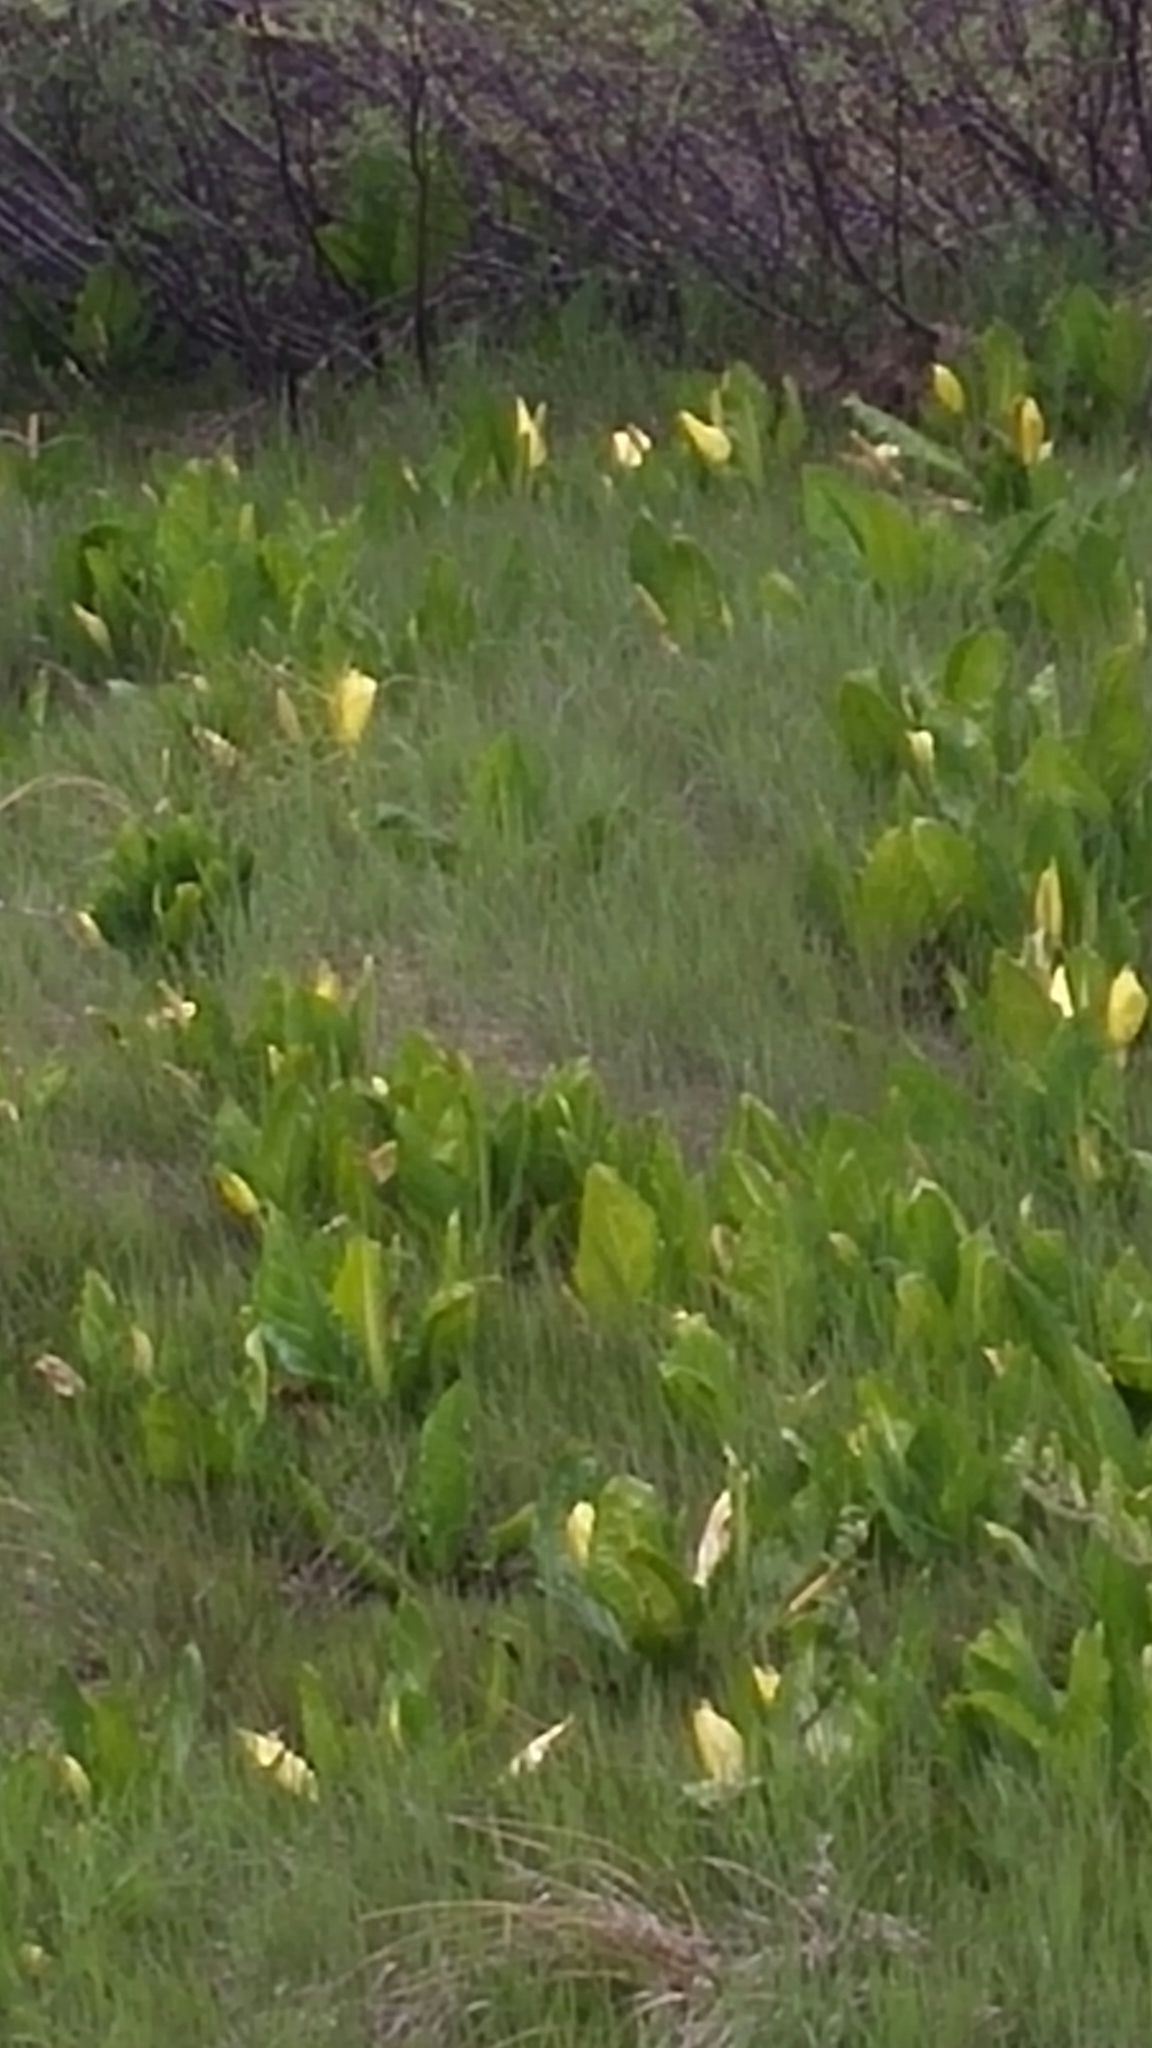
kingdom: Plantae
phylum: Tracheophyta
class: Liliopsida
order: Alismatales
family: Araceae
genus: Lysichiton
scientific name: Lysichiton americanus
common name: American skunk cabbage
